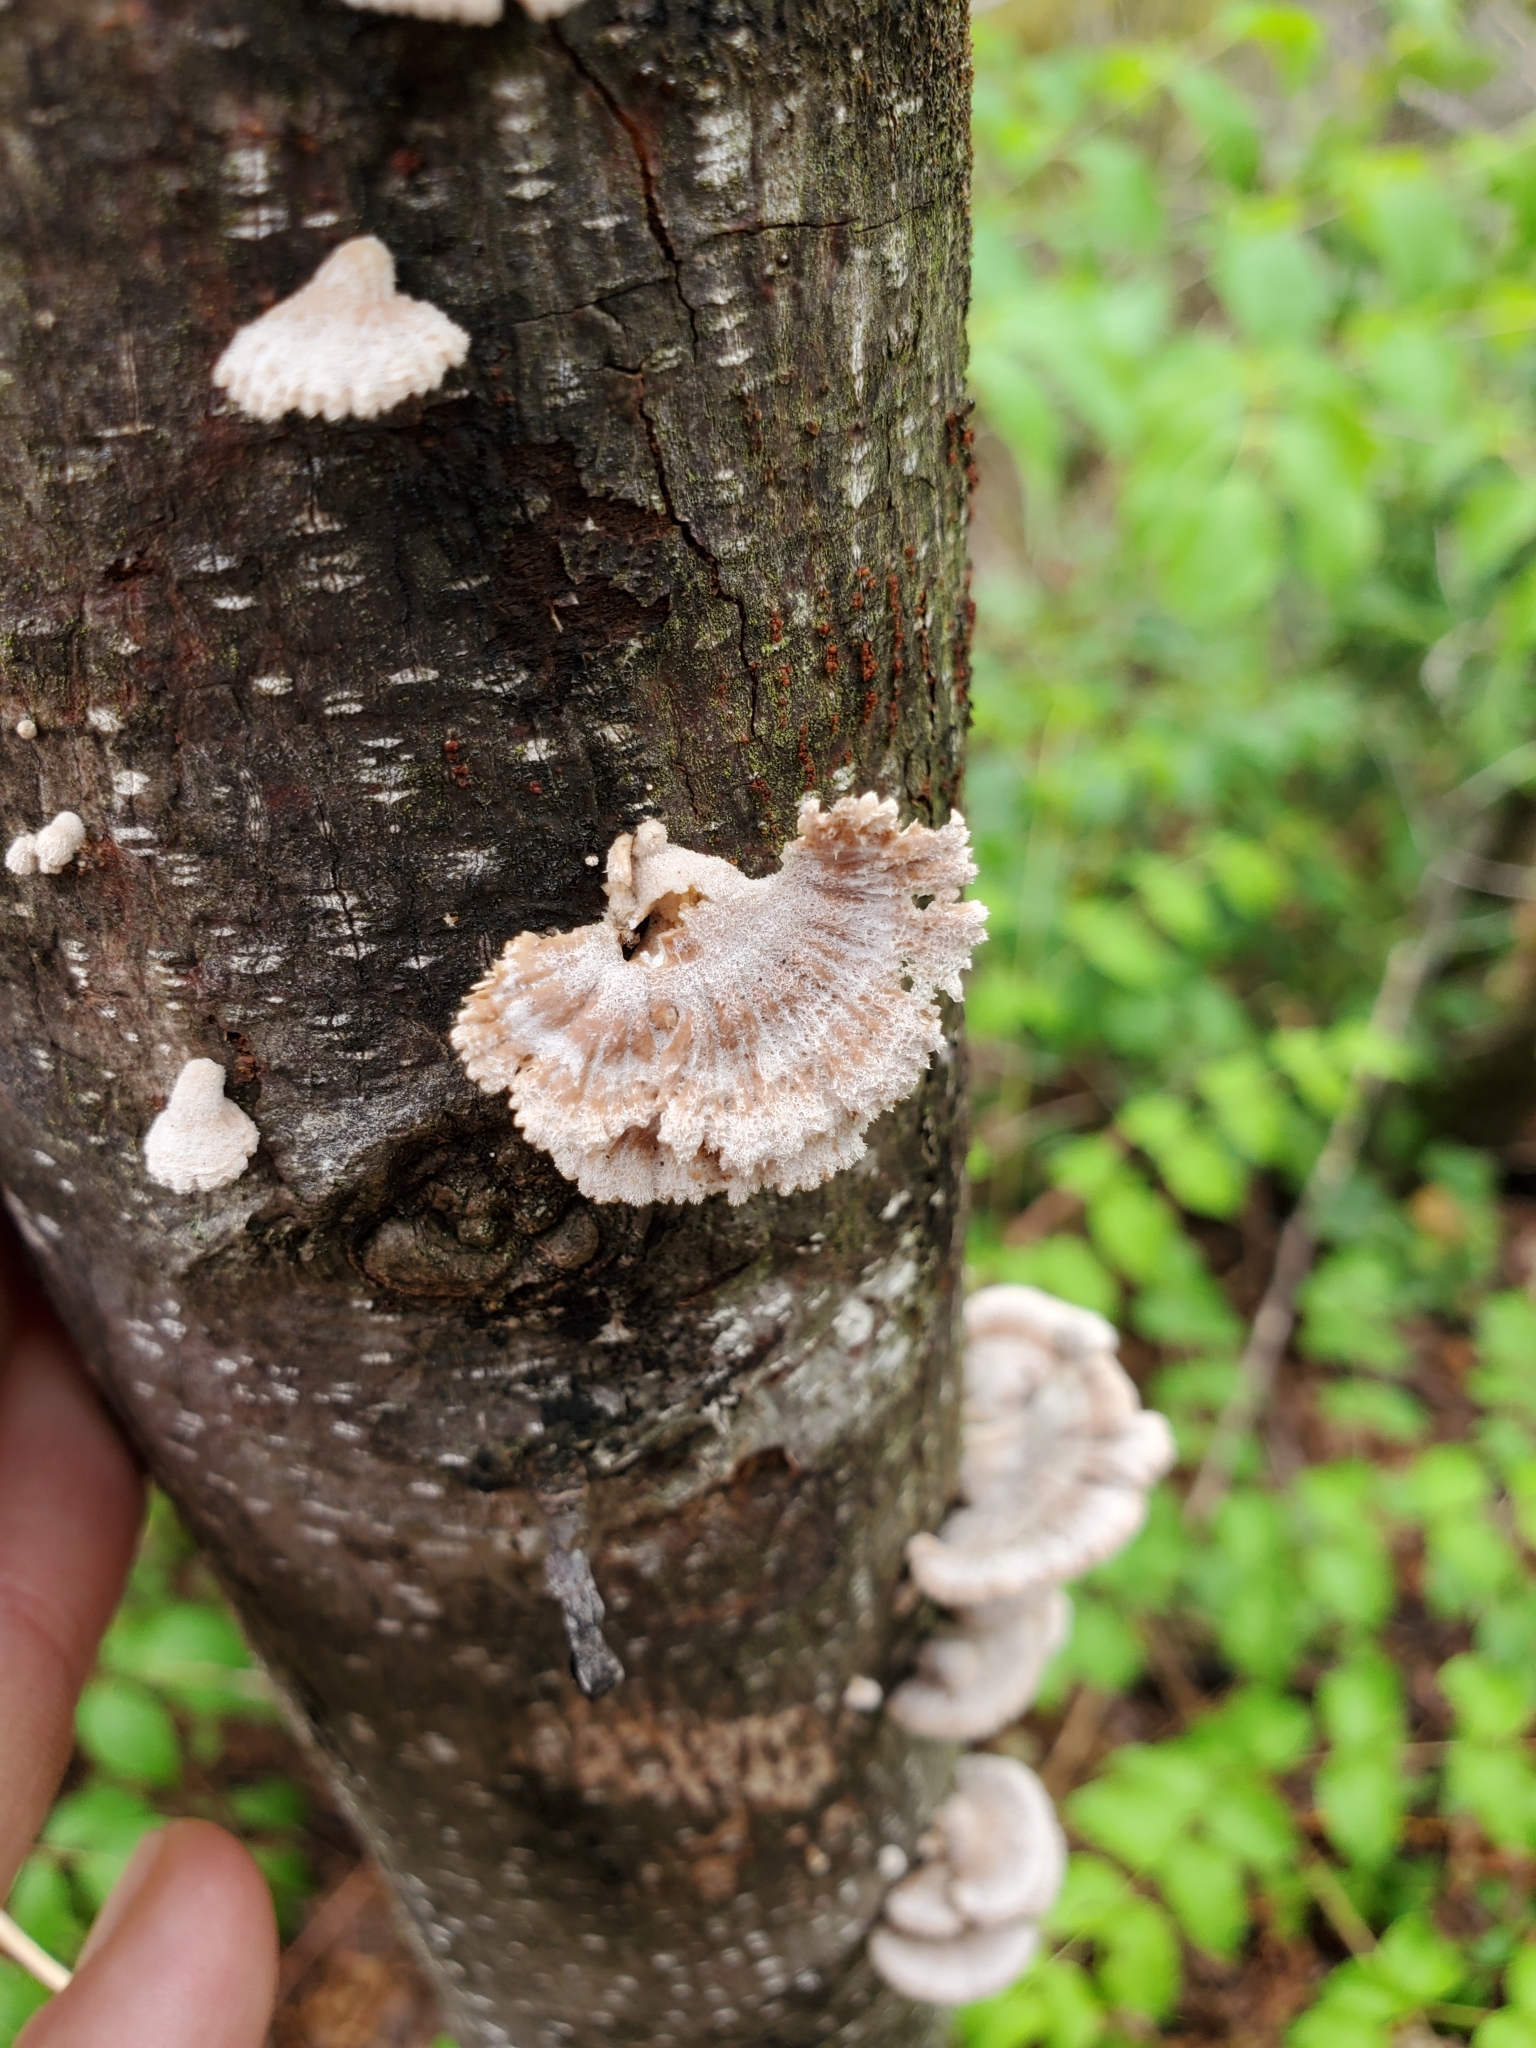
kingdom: Fungi
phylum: Basidiomycota
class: Agaricomycetes
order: Agaricales
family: Schizophyllaceae
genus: Schizophyllum
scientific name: Schizophyllum commune
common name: Common porecrust
